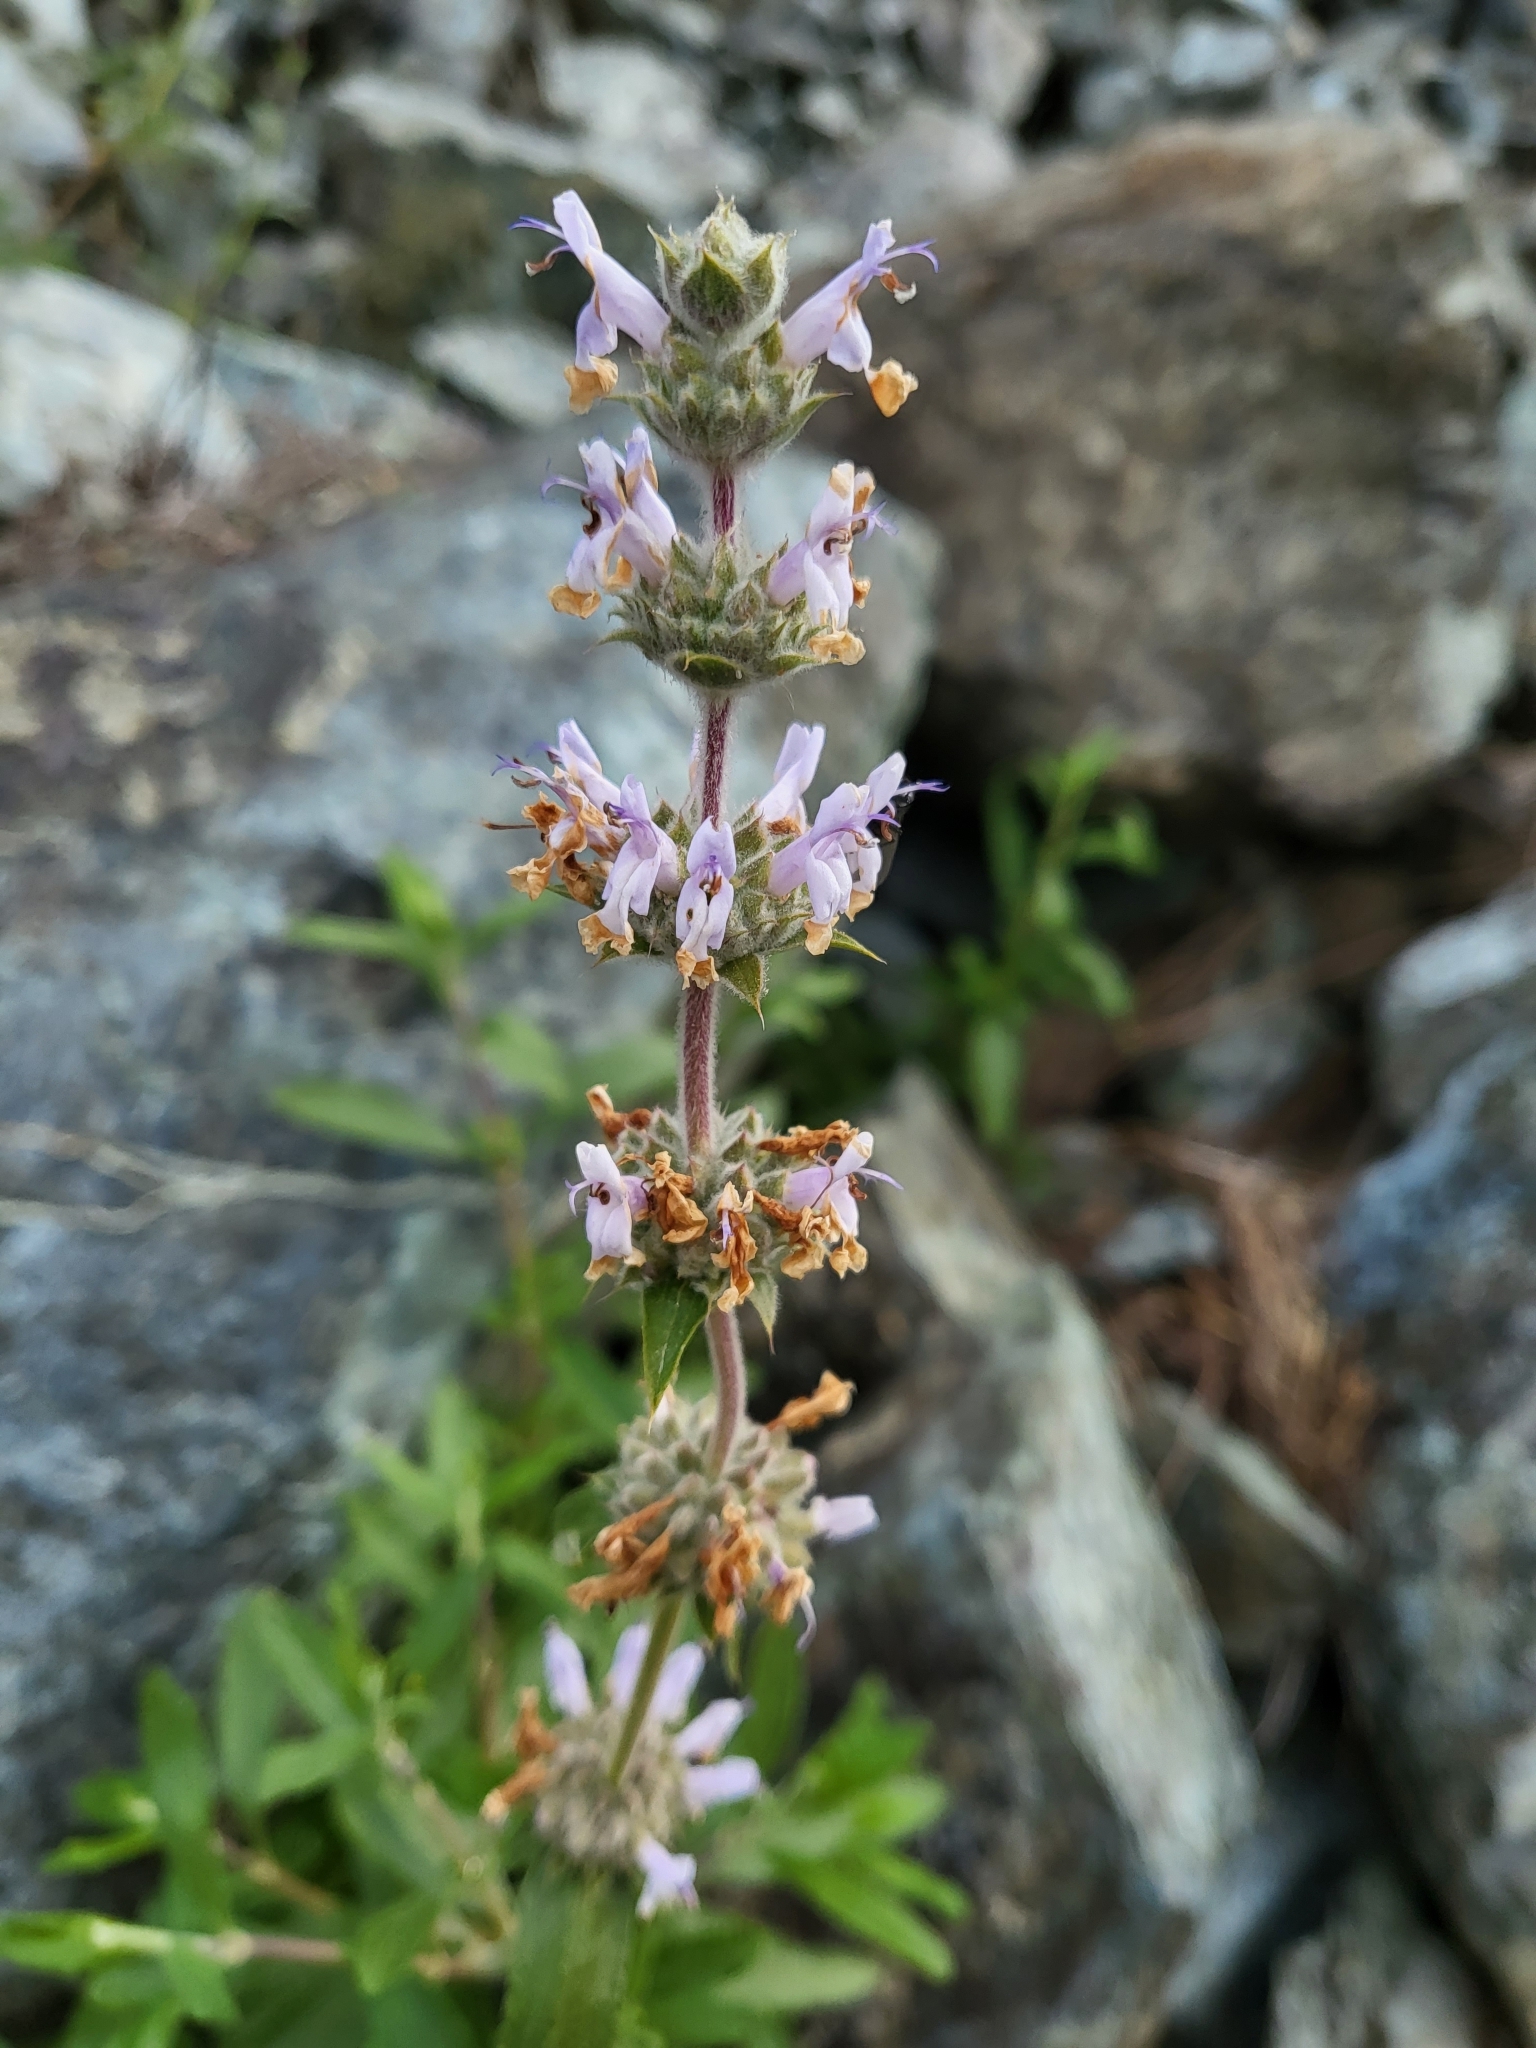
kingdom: Plantae
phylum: Tracheophyta
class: Magnoliopsida
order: Lamiales
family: Lamiaceae
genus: Salvia
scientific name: Salvia mellifera
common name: Black sage
